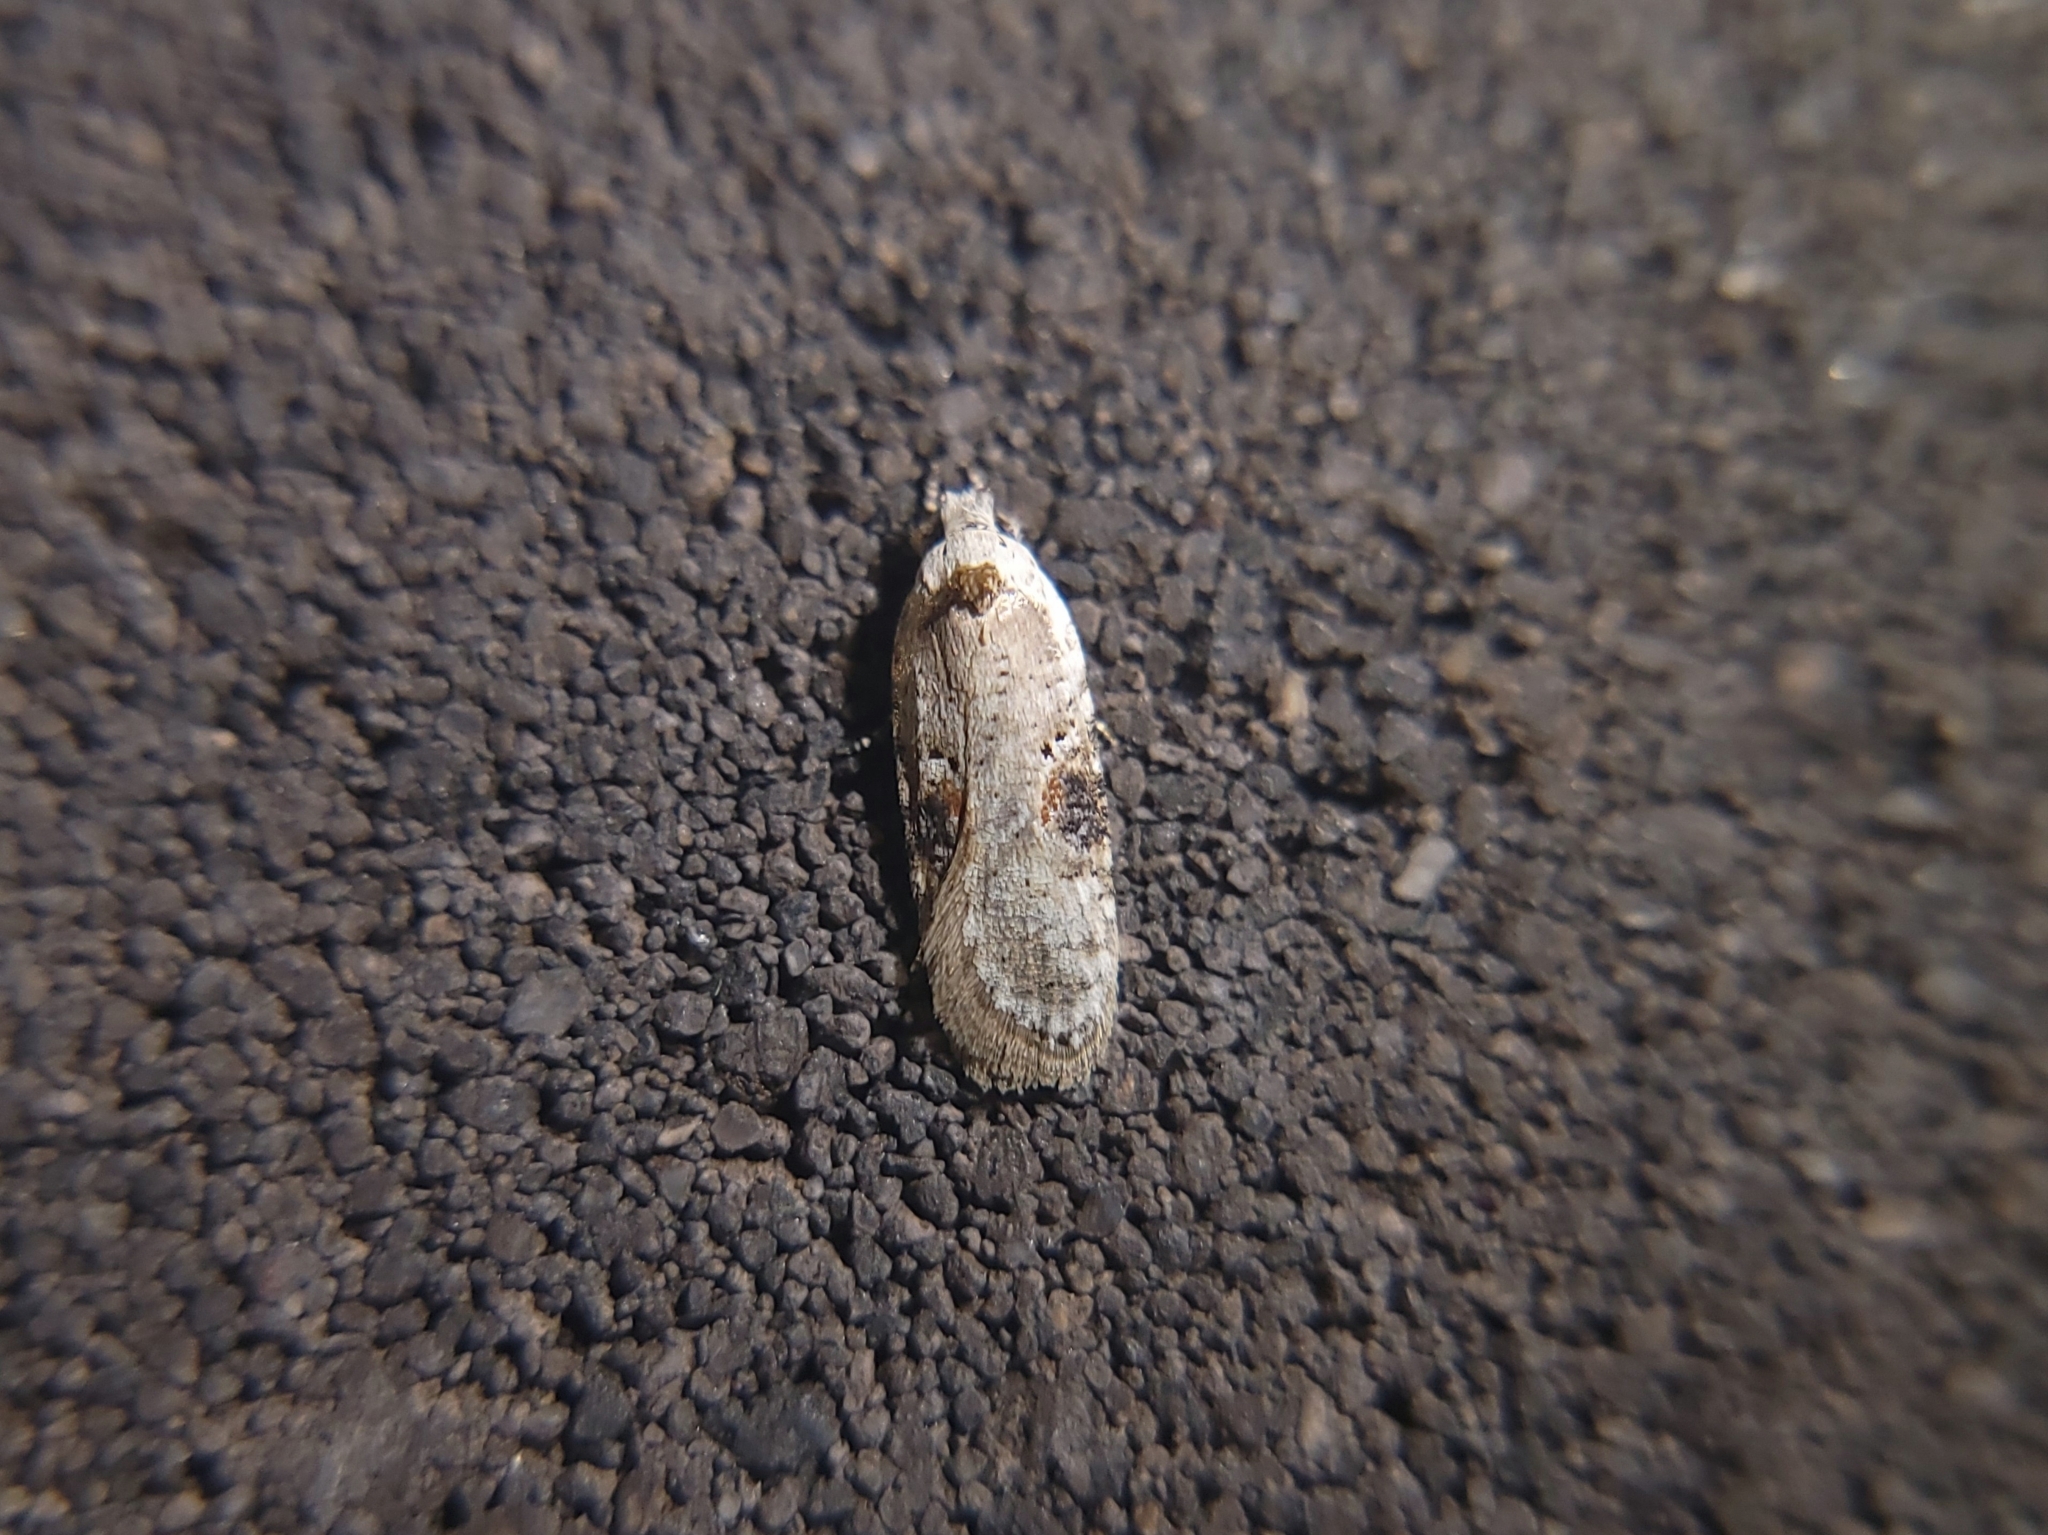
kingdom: Animalia
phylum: Arthropoda
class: Insecta
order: Lepidoptera
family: Depressariidae
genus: Agonopterix
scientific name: Agonopterix alstroemeriana
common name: Moth
